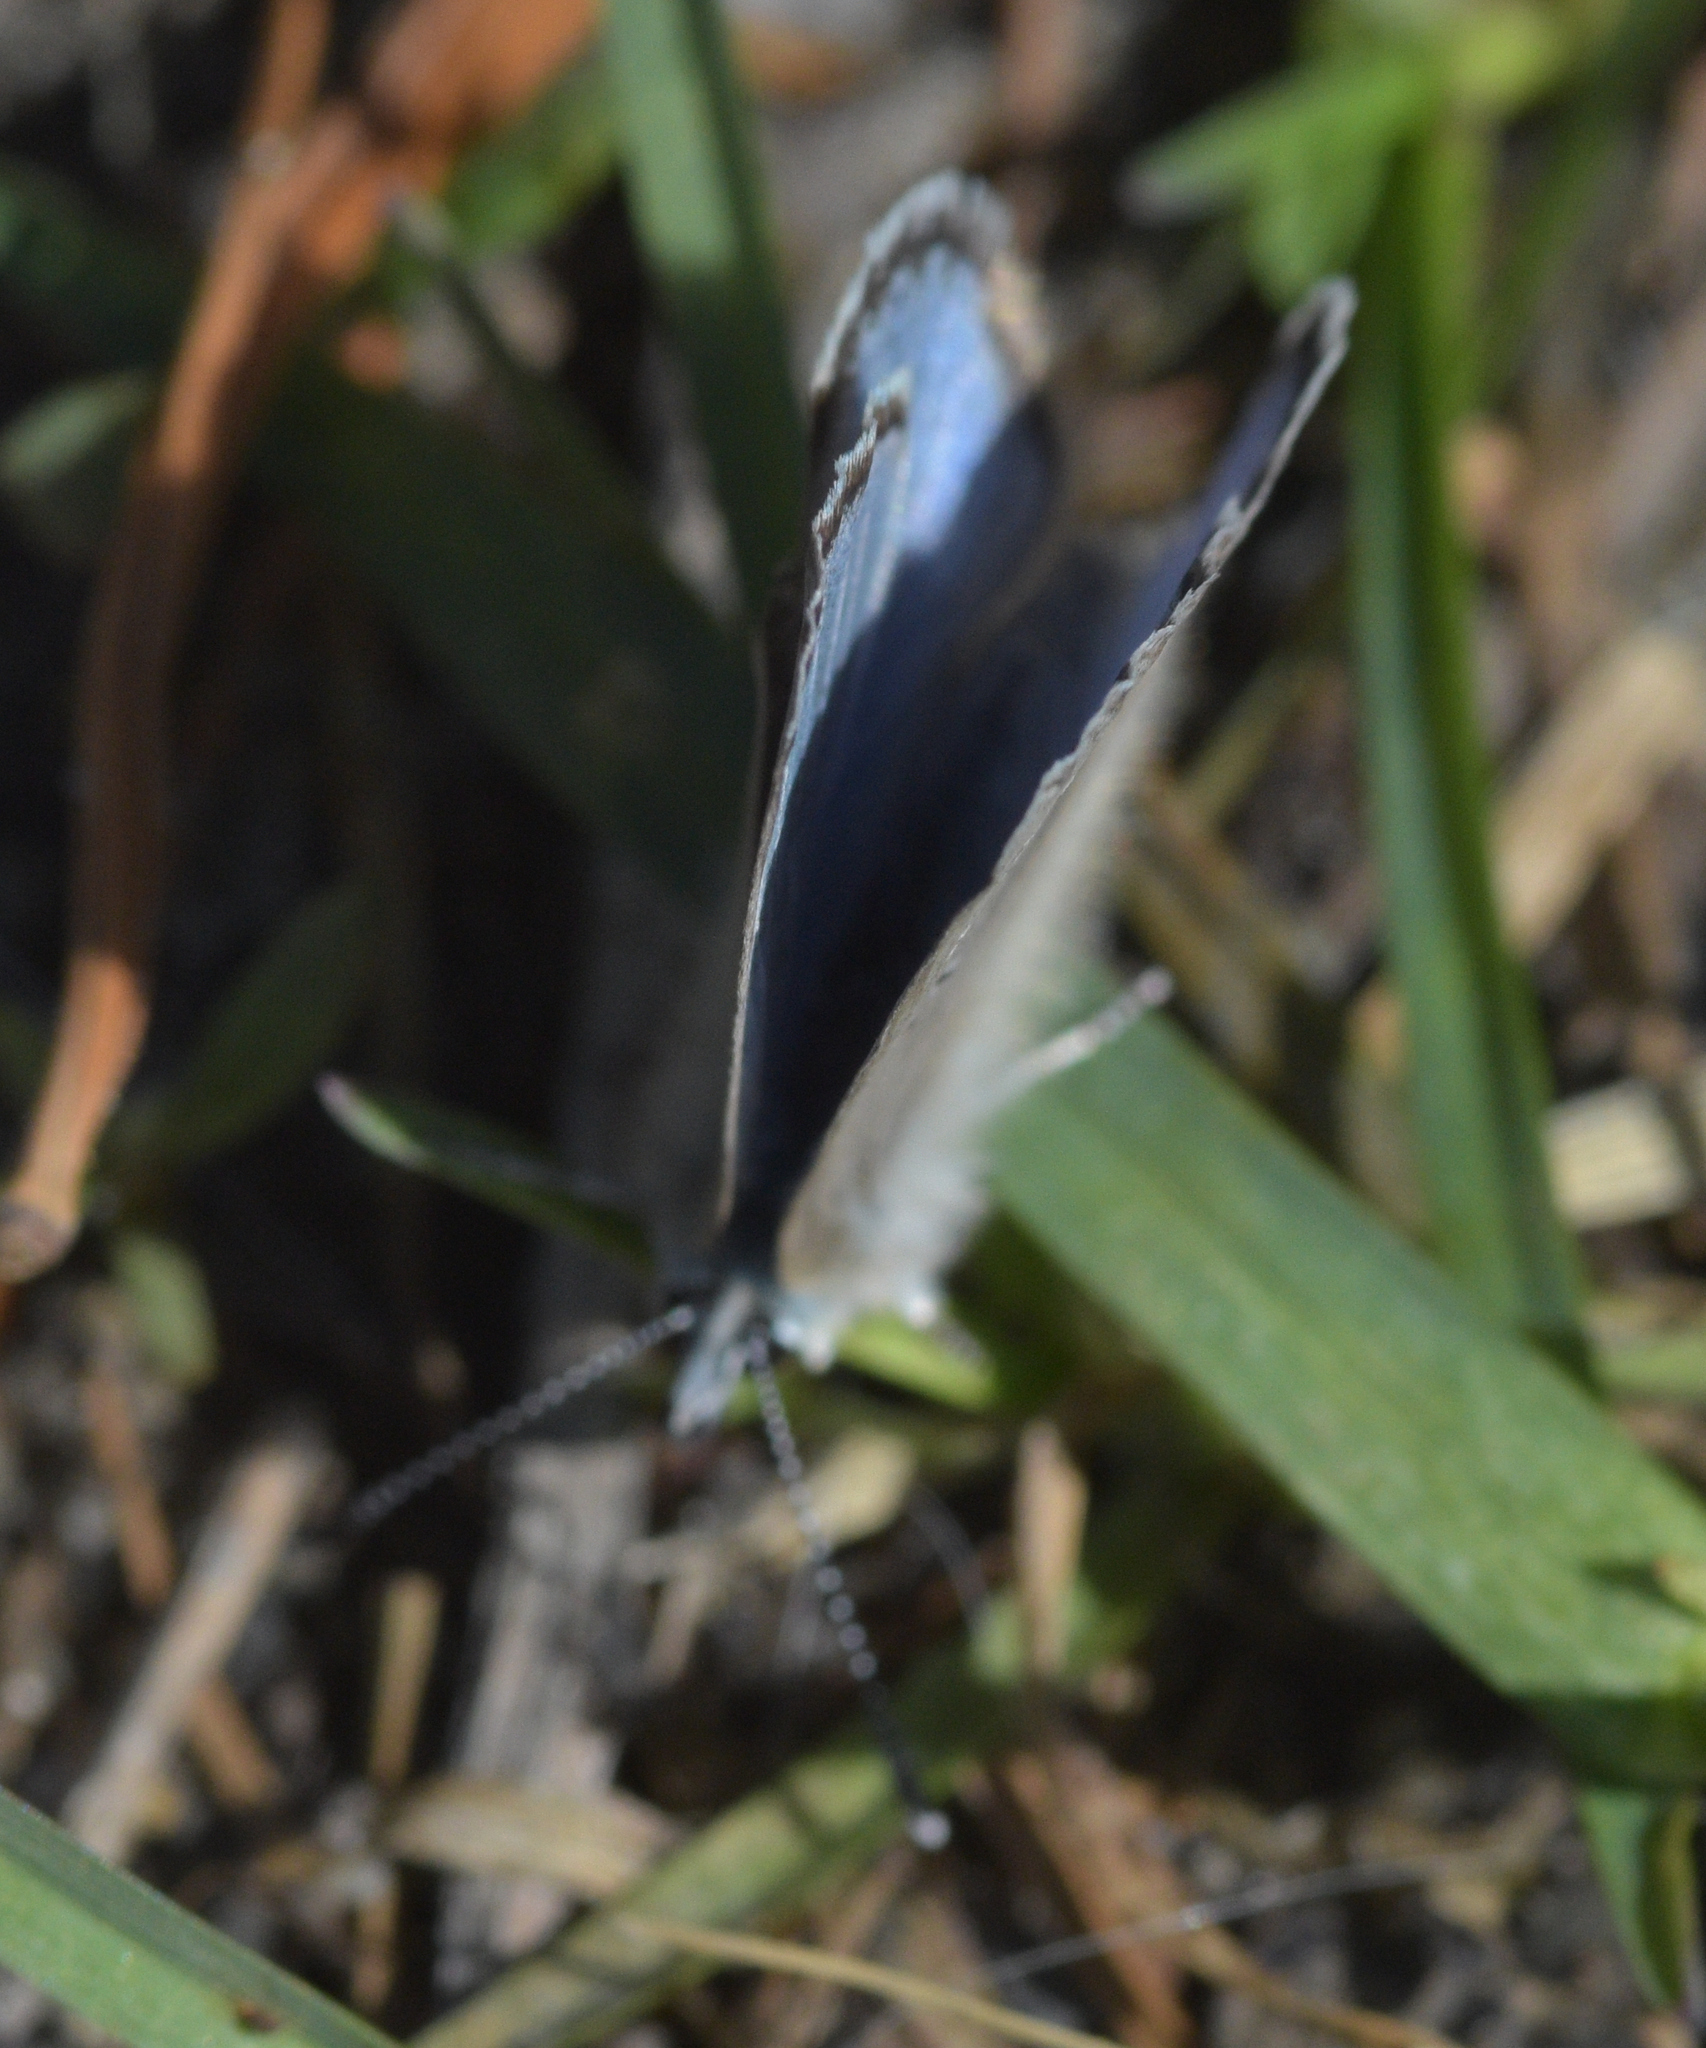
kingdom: Animalia
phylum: Arthropoda
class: Insecta
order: Lepidoptera
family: Lycaenidae
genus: Glaucopsyche
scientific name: Glaucopsyche lygdamus
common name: Silvery blue
